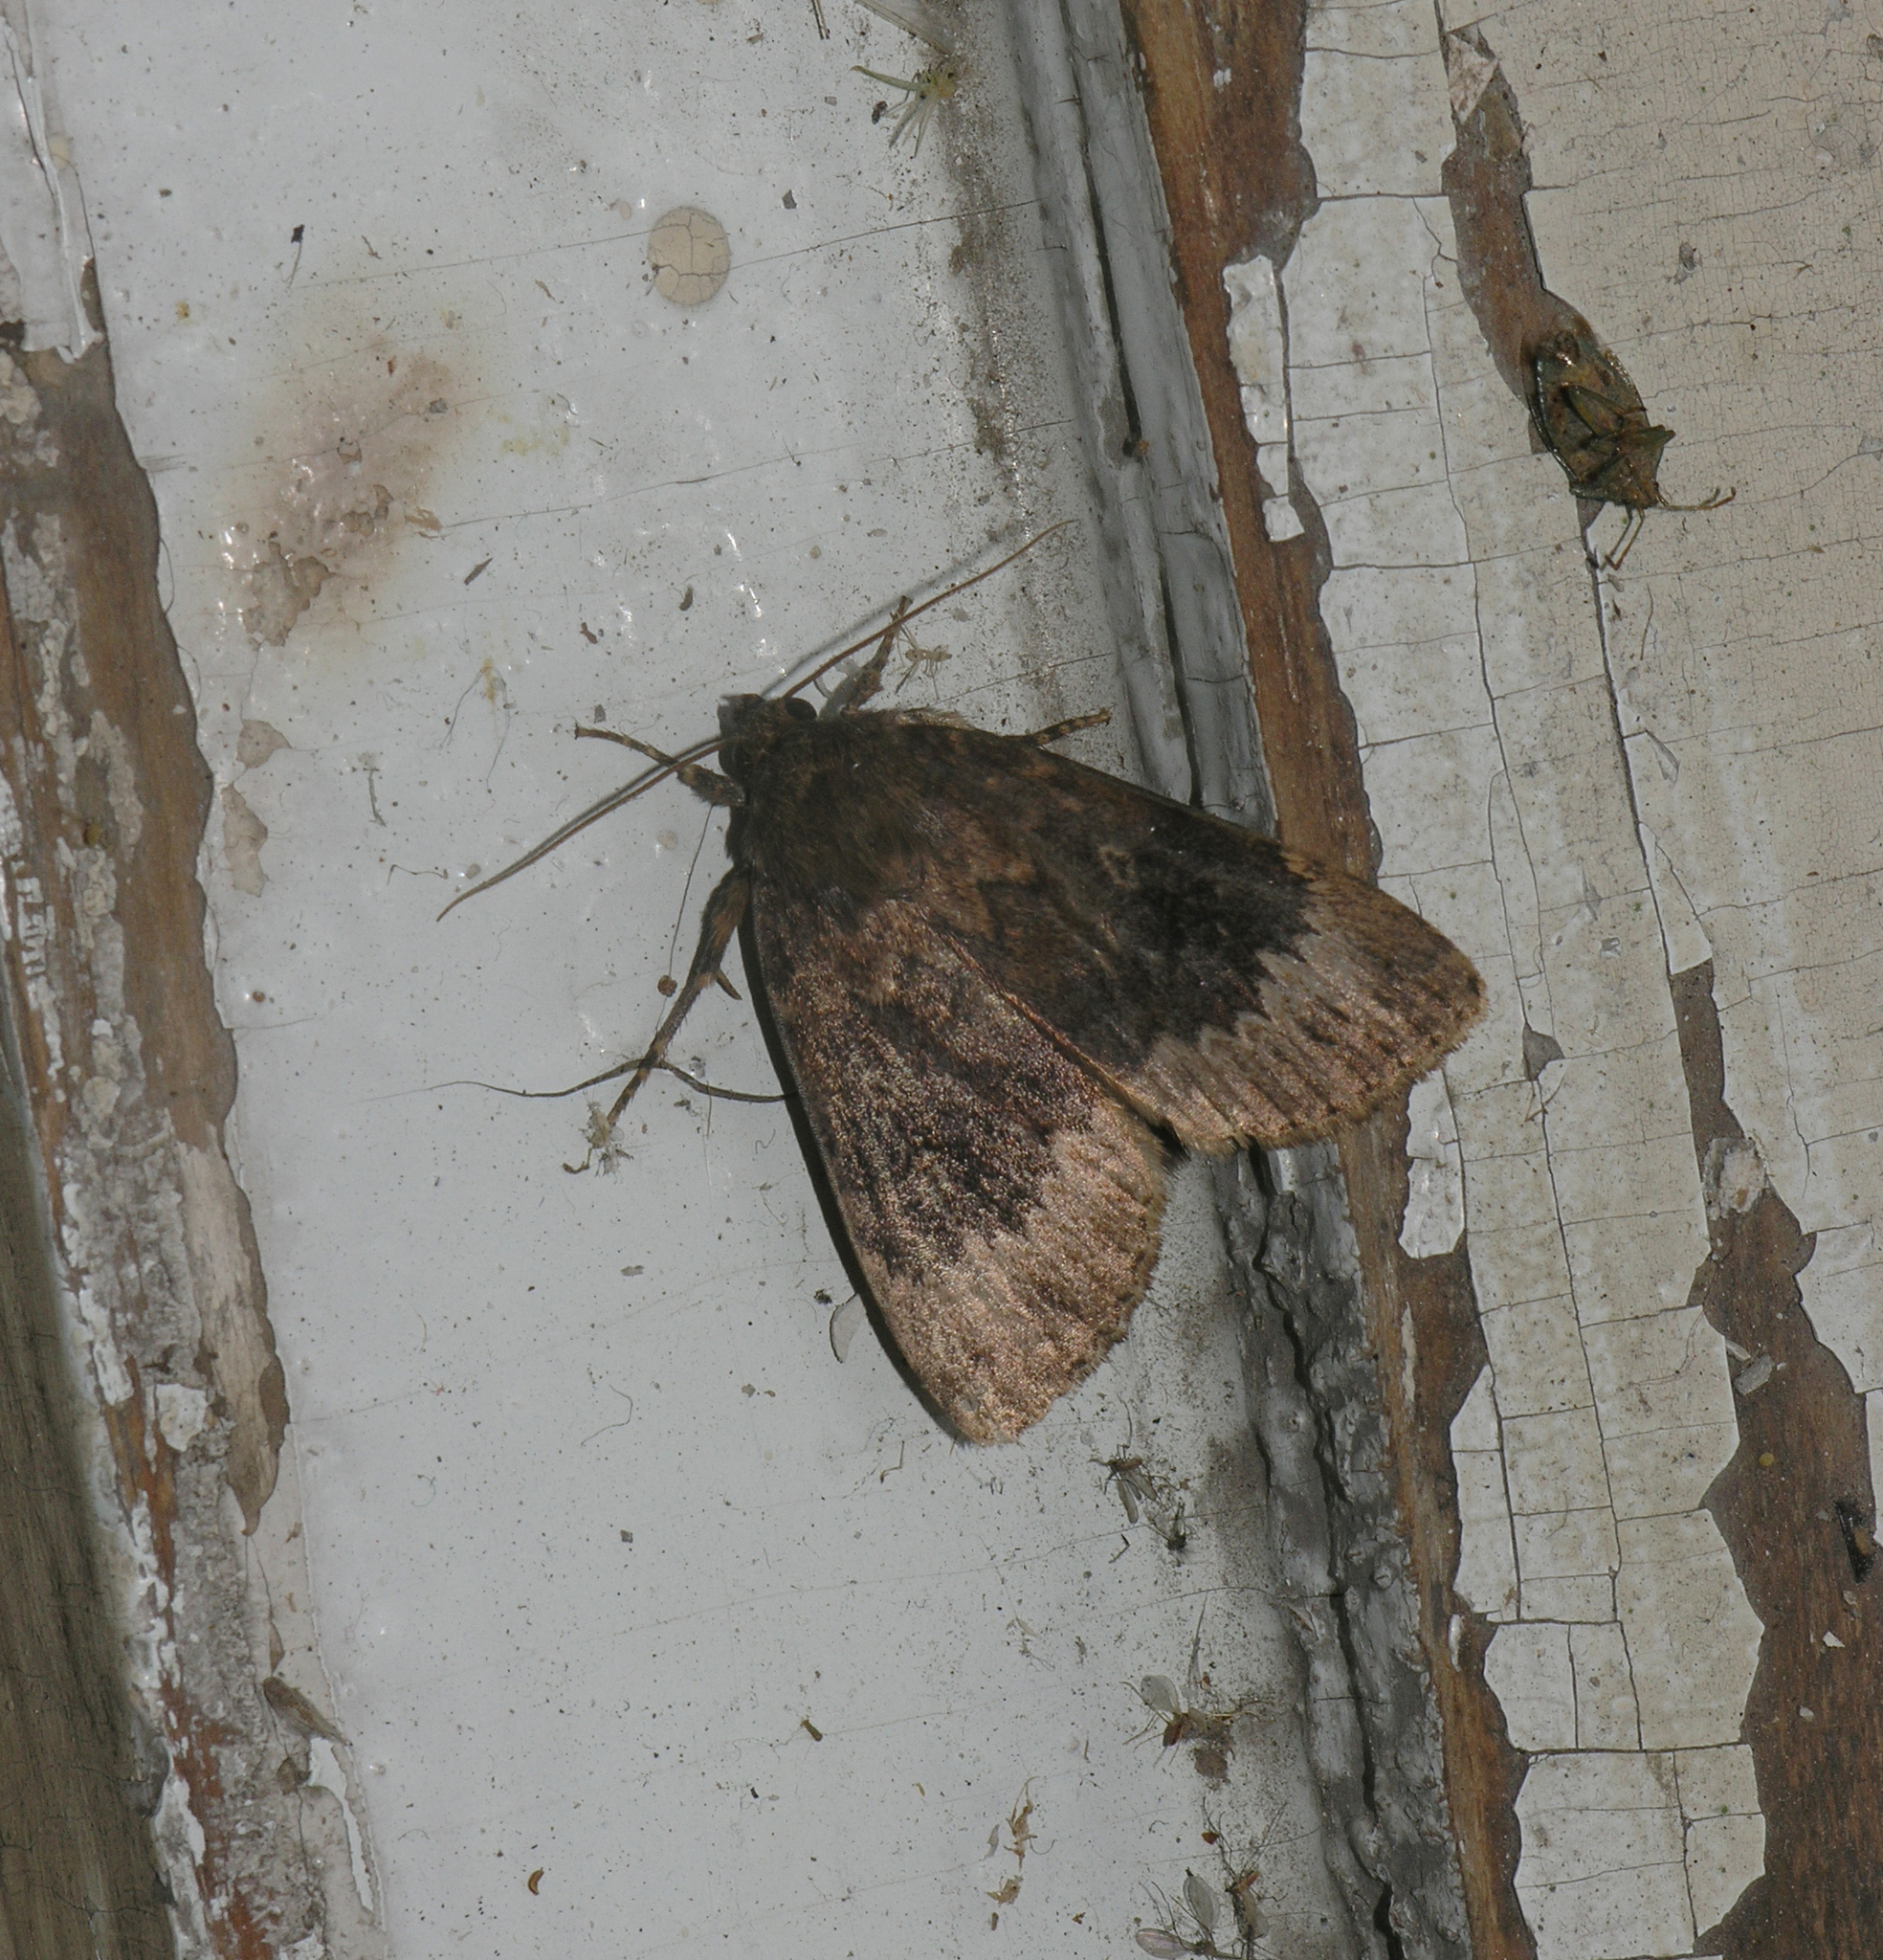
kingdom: Animalia
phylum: Arthropoda
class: Insecta
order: Lepidoptera
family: Noctuidae
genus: Amphipyra
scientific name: Amphipyra perflua
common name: Larger pale-tipped black moth
